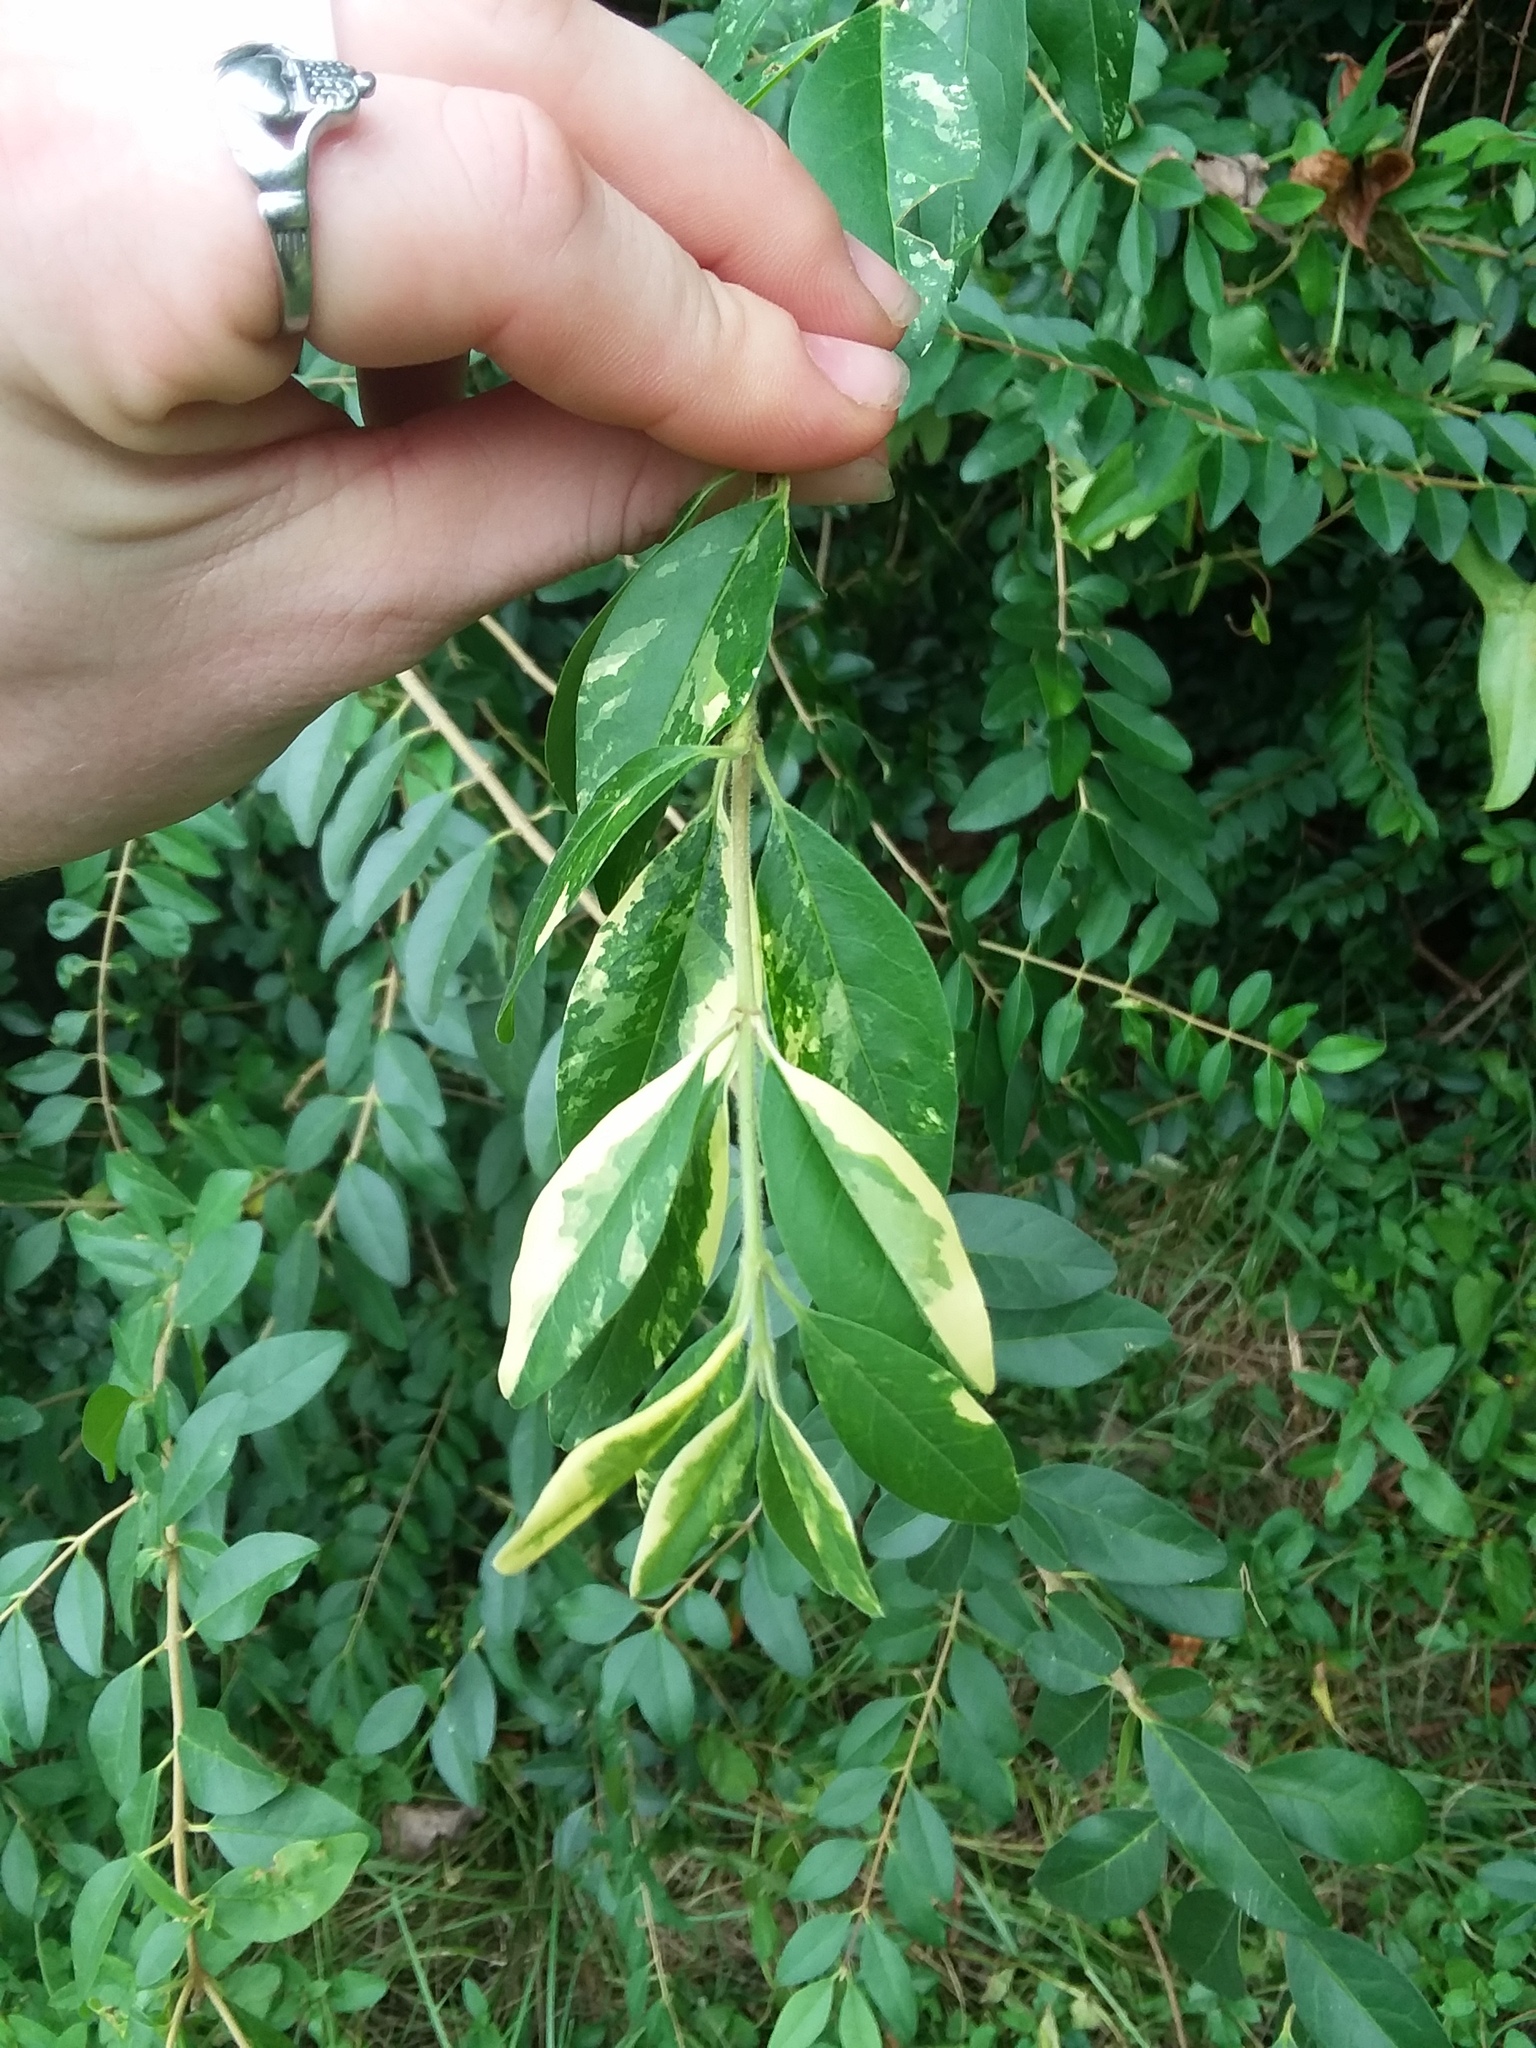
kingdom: Plantae
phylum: Tracheophyta
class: Magnoliopsida
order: Lamiales
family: Oleaceae
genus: Ligustrum
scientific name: Ligustrum sinense
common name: Chinese privet
